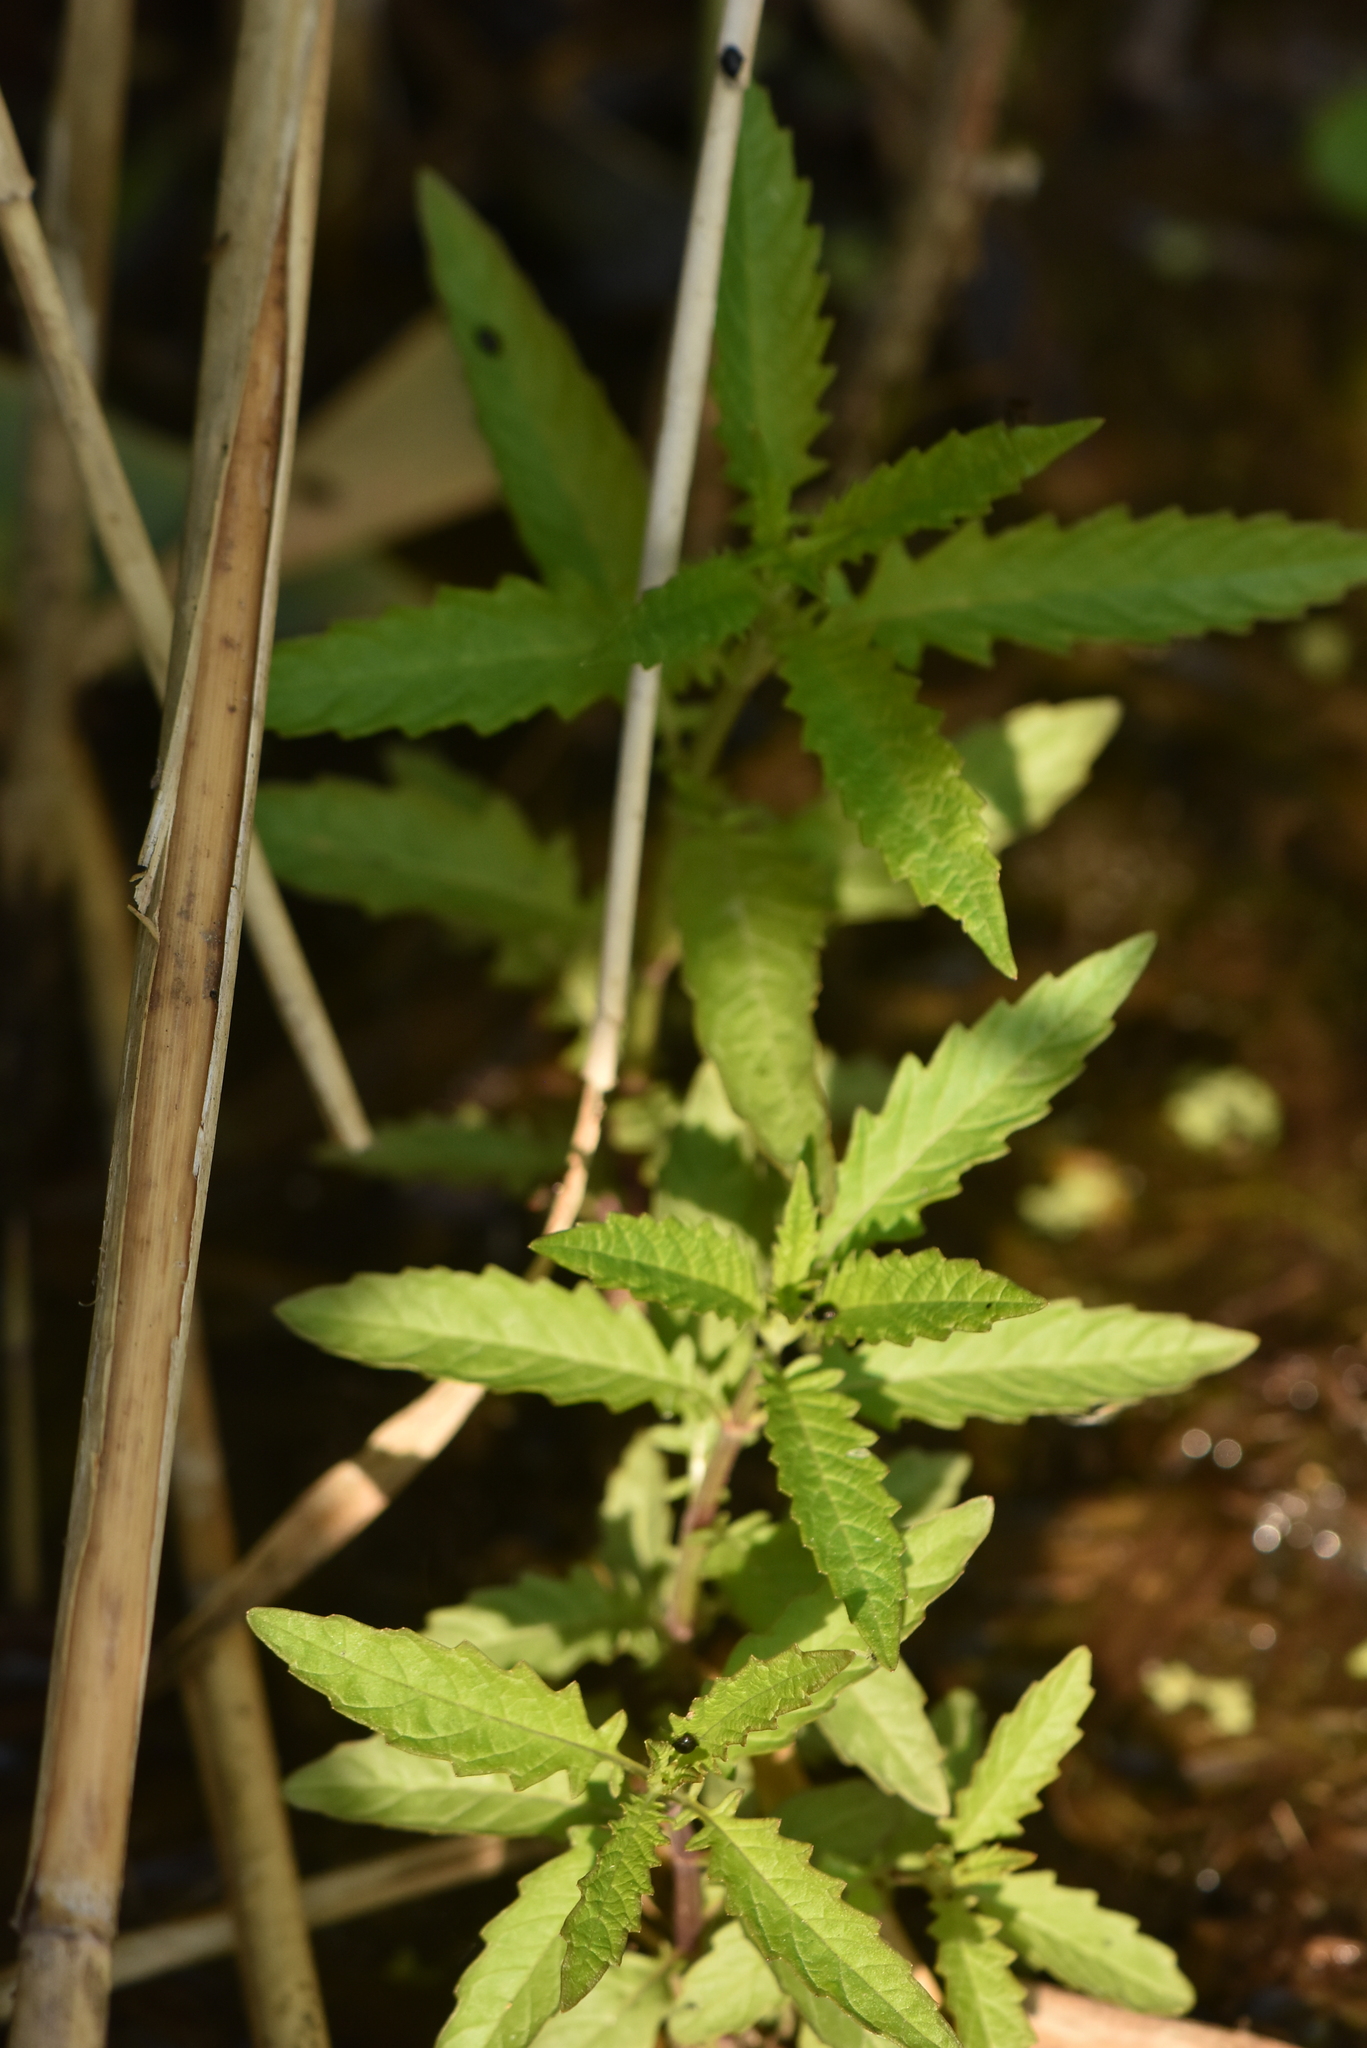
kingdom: Plantae
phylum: Tracheophyta
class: Magnoliopsida
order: Lamiales
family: Lamiaceae
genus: Lycopus
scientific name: Lycopus europaeus
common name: European bugleweed
